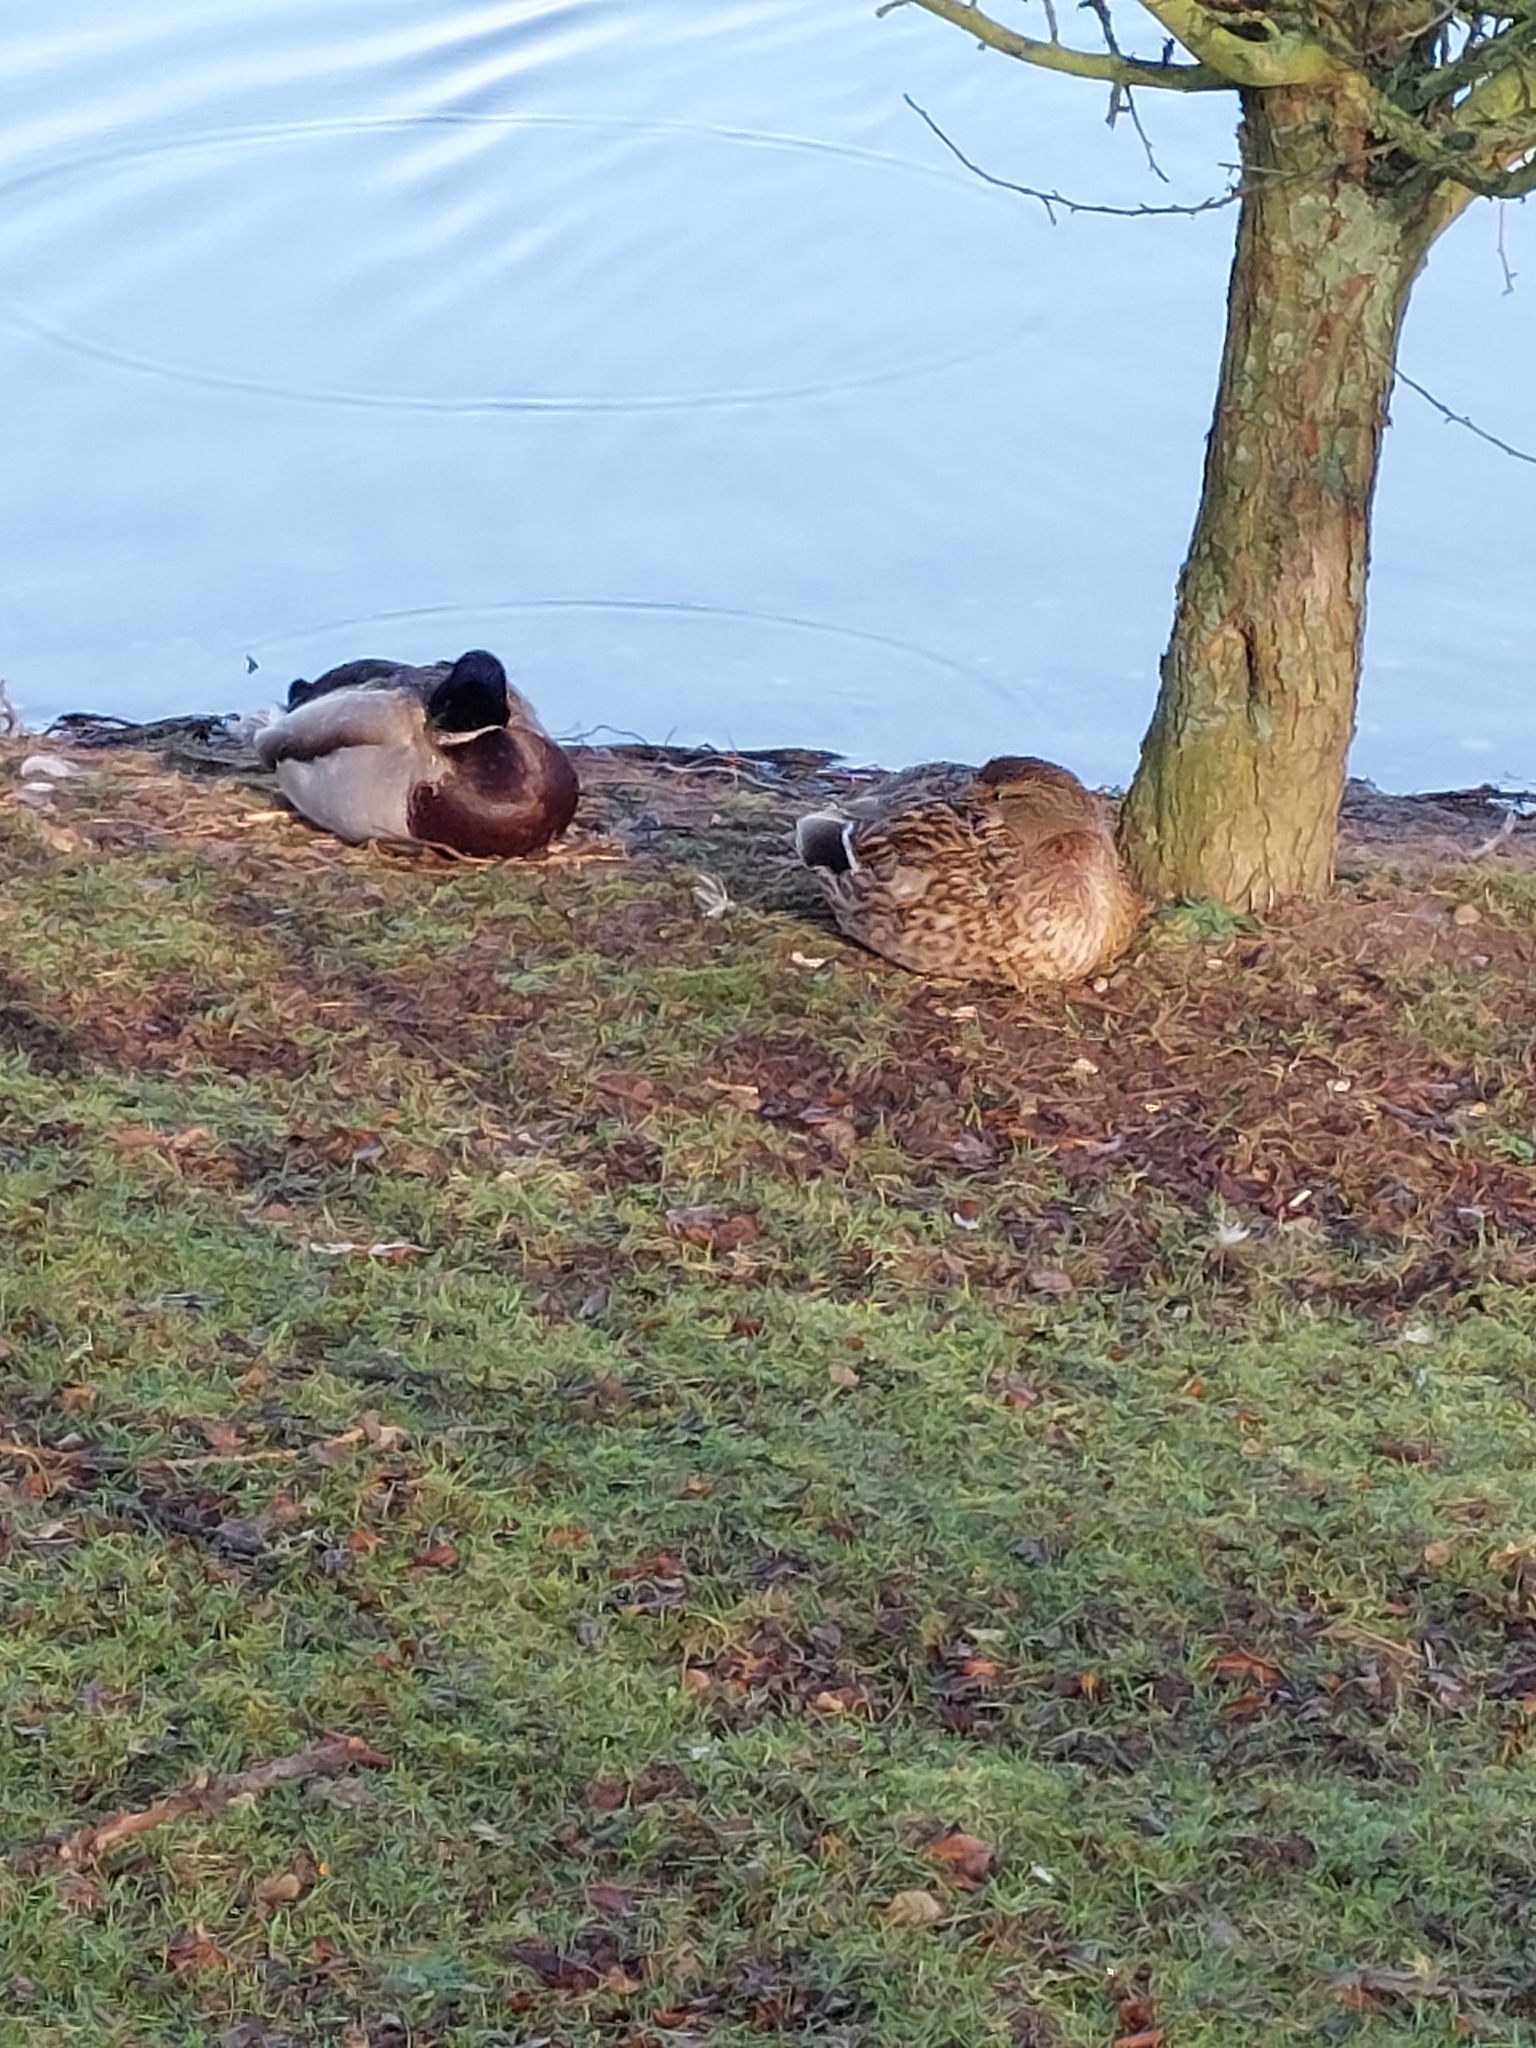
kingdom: Animalia
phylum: Chordata
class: Aves
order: Anseriformes
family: Anatidae
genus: Anas
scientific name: Anas platyrhynchos
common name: Mallard
